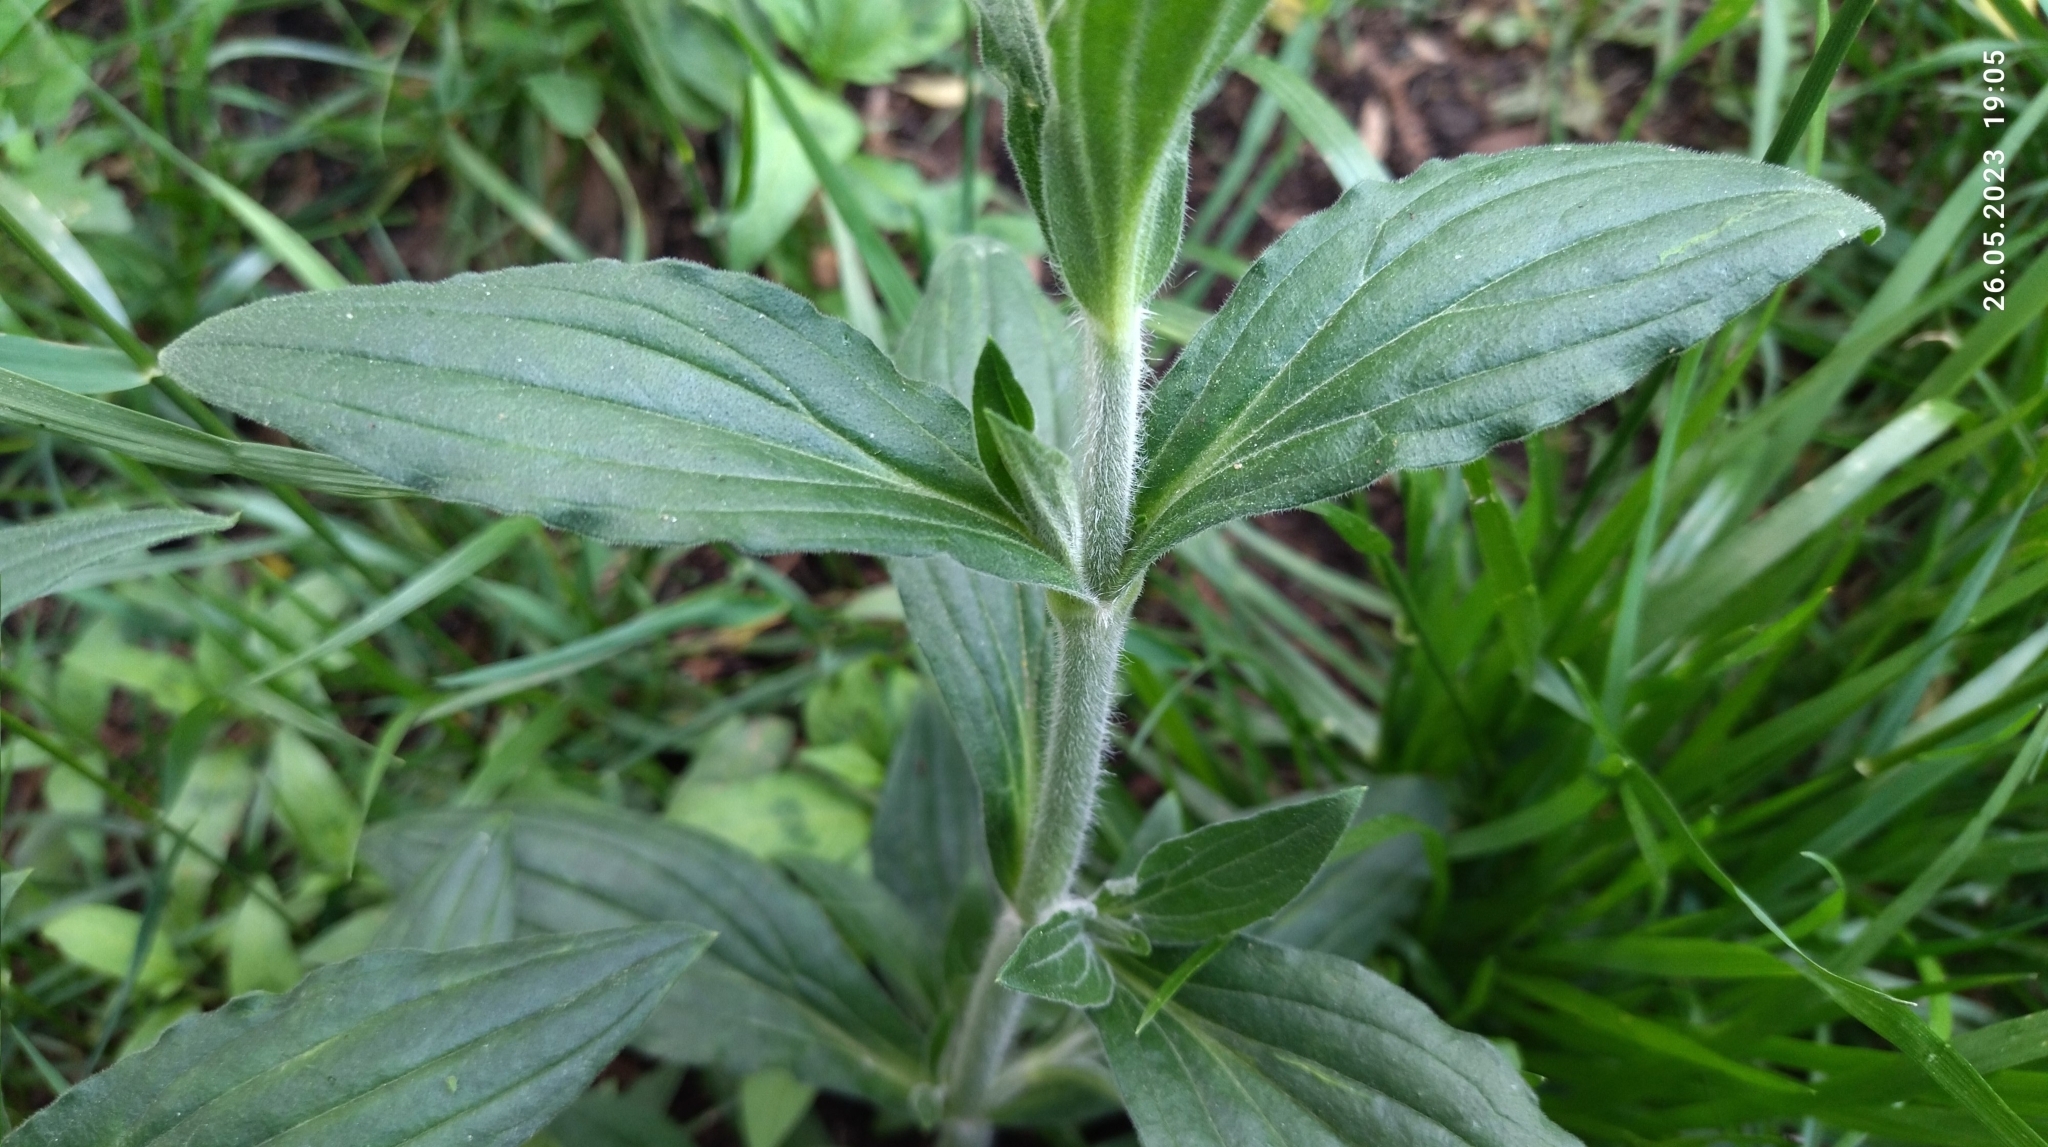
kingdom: Plantae
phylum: Tracheophyta
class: Magnoliopsida
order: Caryophyllales
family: Caryophyllaceae
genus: Silene
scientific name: Silene latifolia
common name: White campion
